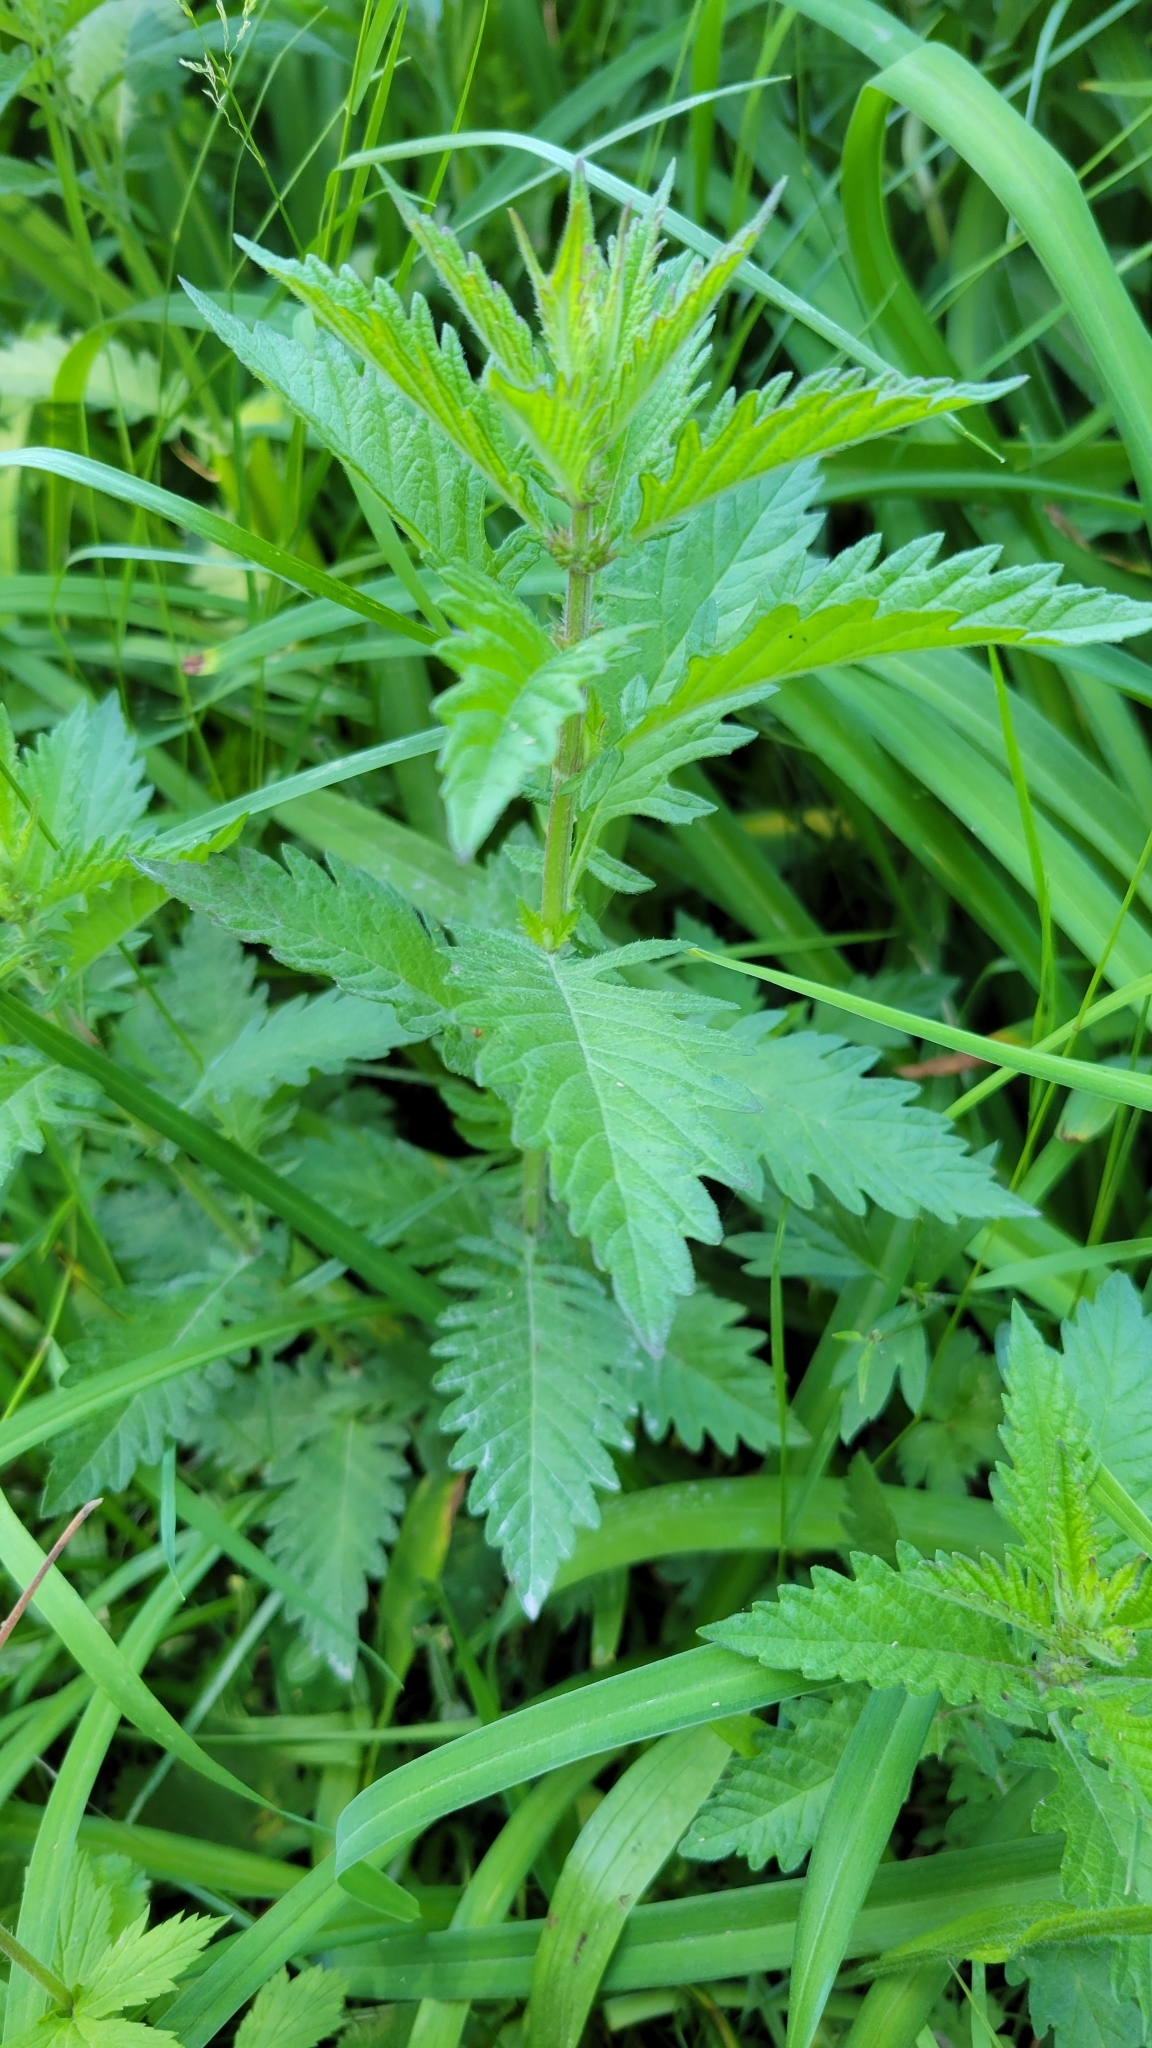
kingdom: Plantae
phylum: Tracheophyta
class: Magnoliopsida
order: Lamiales
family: Lamiaceae
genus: Lycopus
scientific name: Lycopus europaeus
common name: European bugleweed
